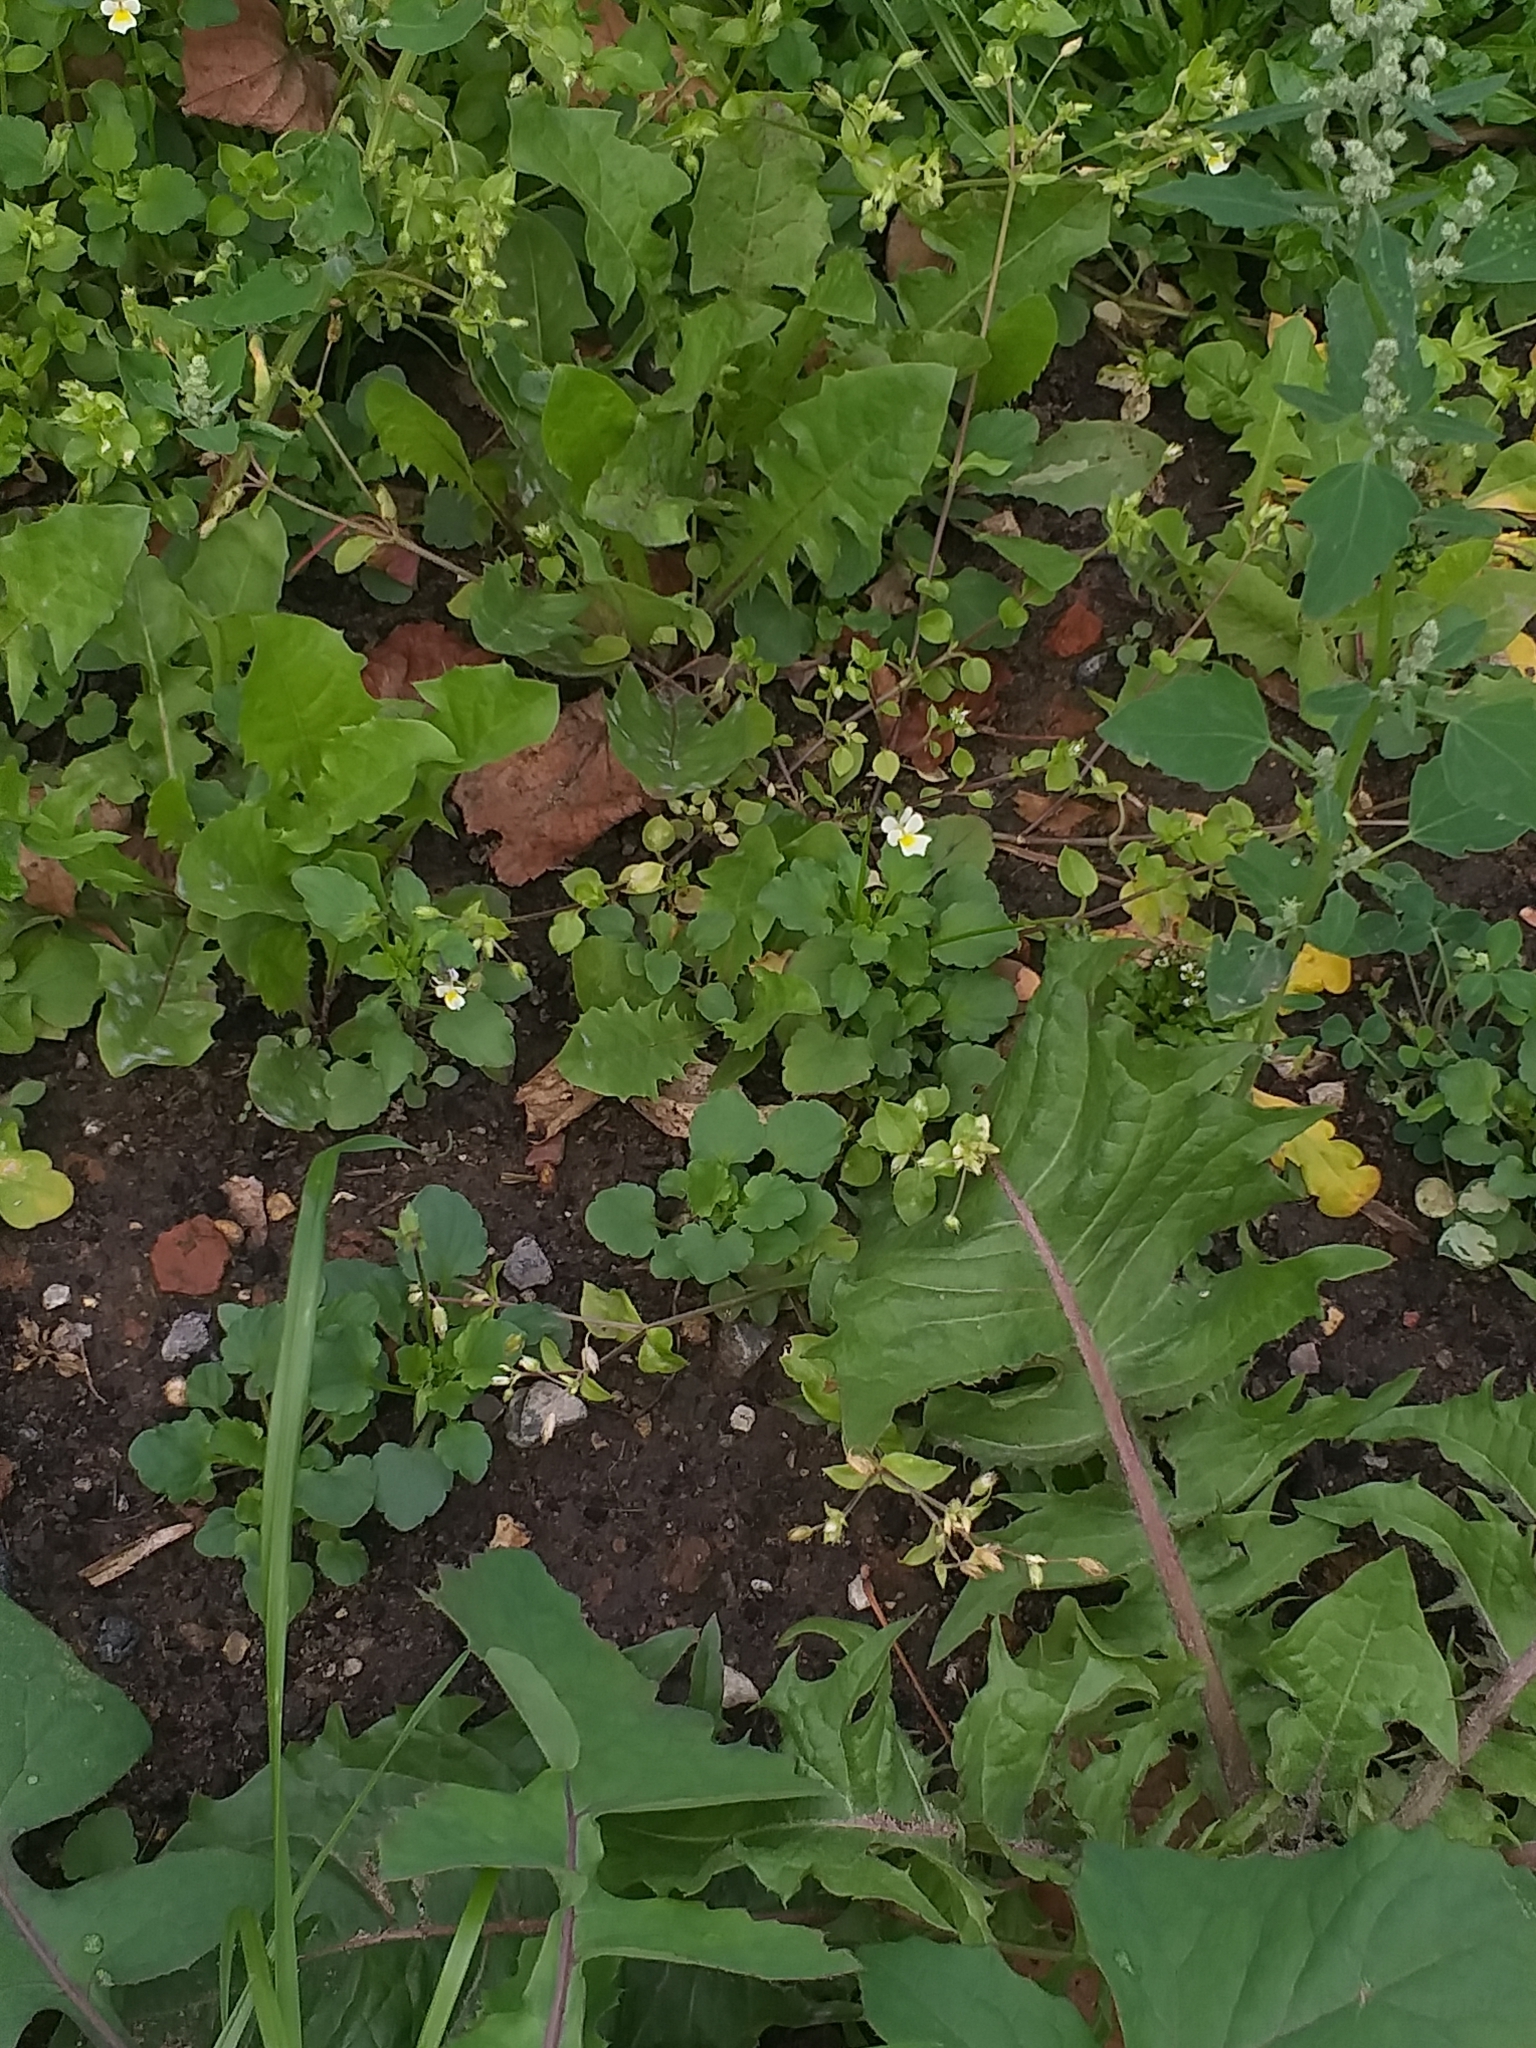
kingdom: Plantae
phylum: Tracheophyta
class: Magnoliopsida
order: Malpighiales
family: Violaceae
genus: Viola
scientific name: Viola arvensis
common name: Field pansy
